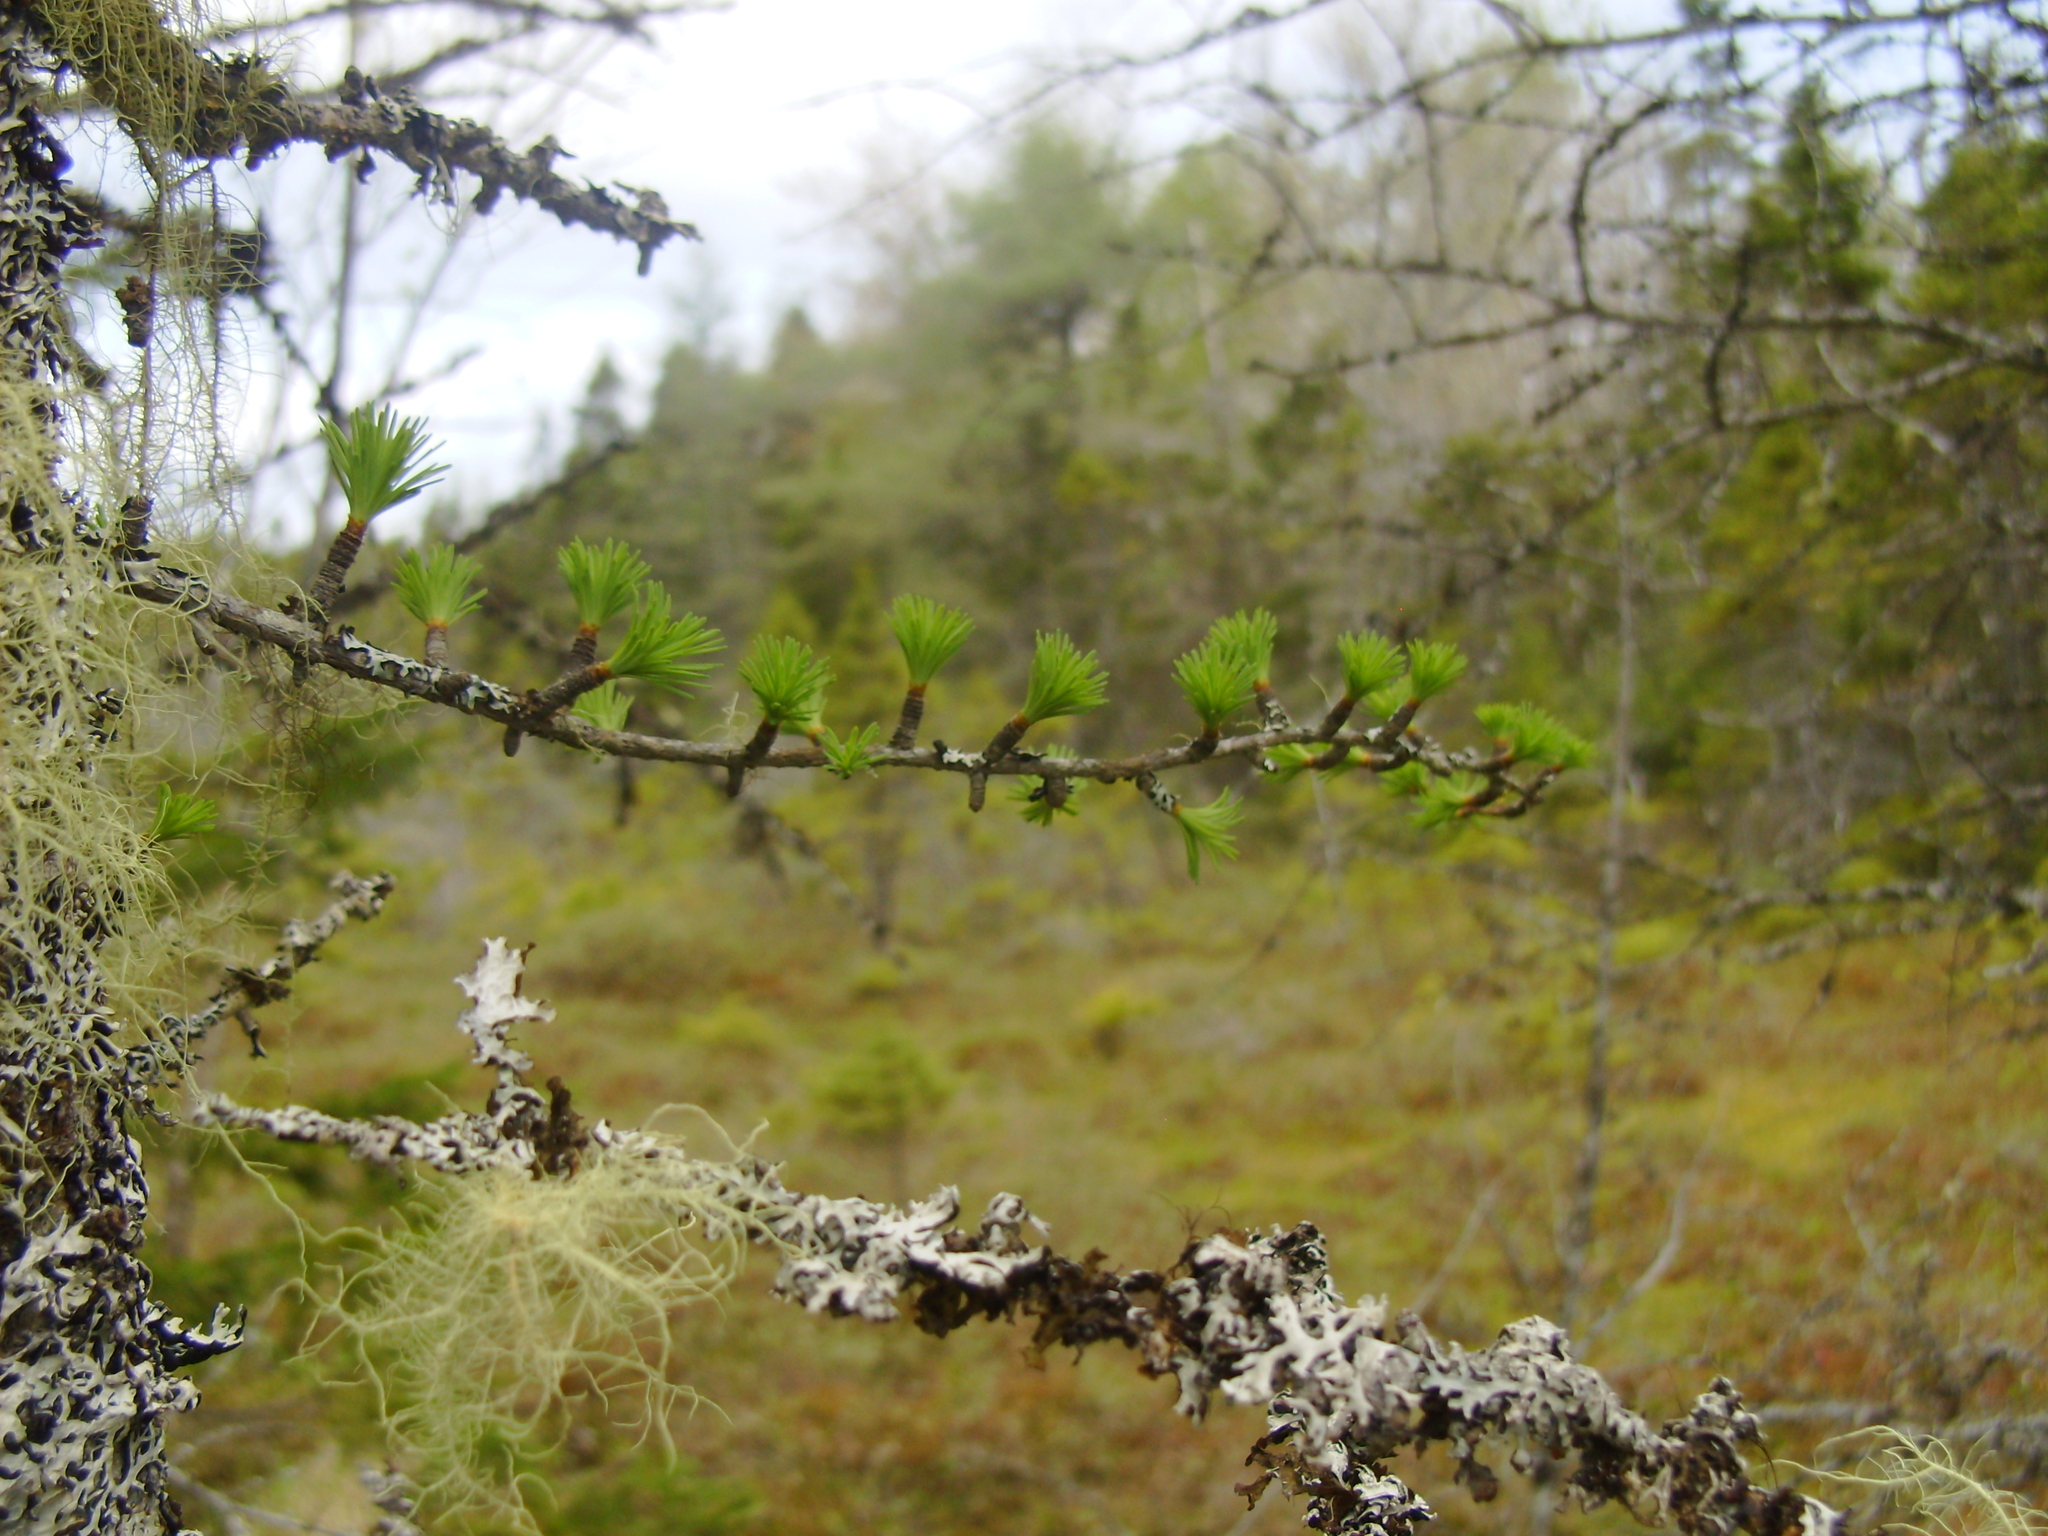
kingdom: Plantae
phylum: Tracheophyta
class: Pinopsida
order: Pinales
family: Pinaceae
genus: Larix
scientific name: Larix laricina
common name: American larch
